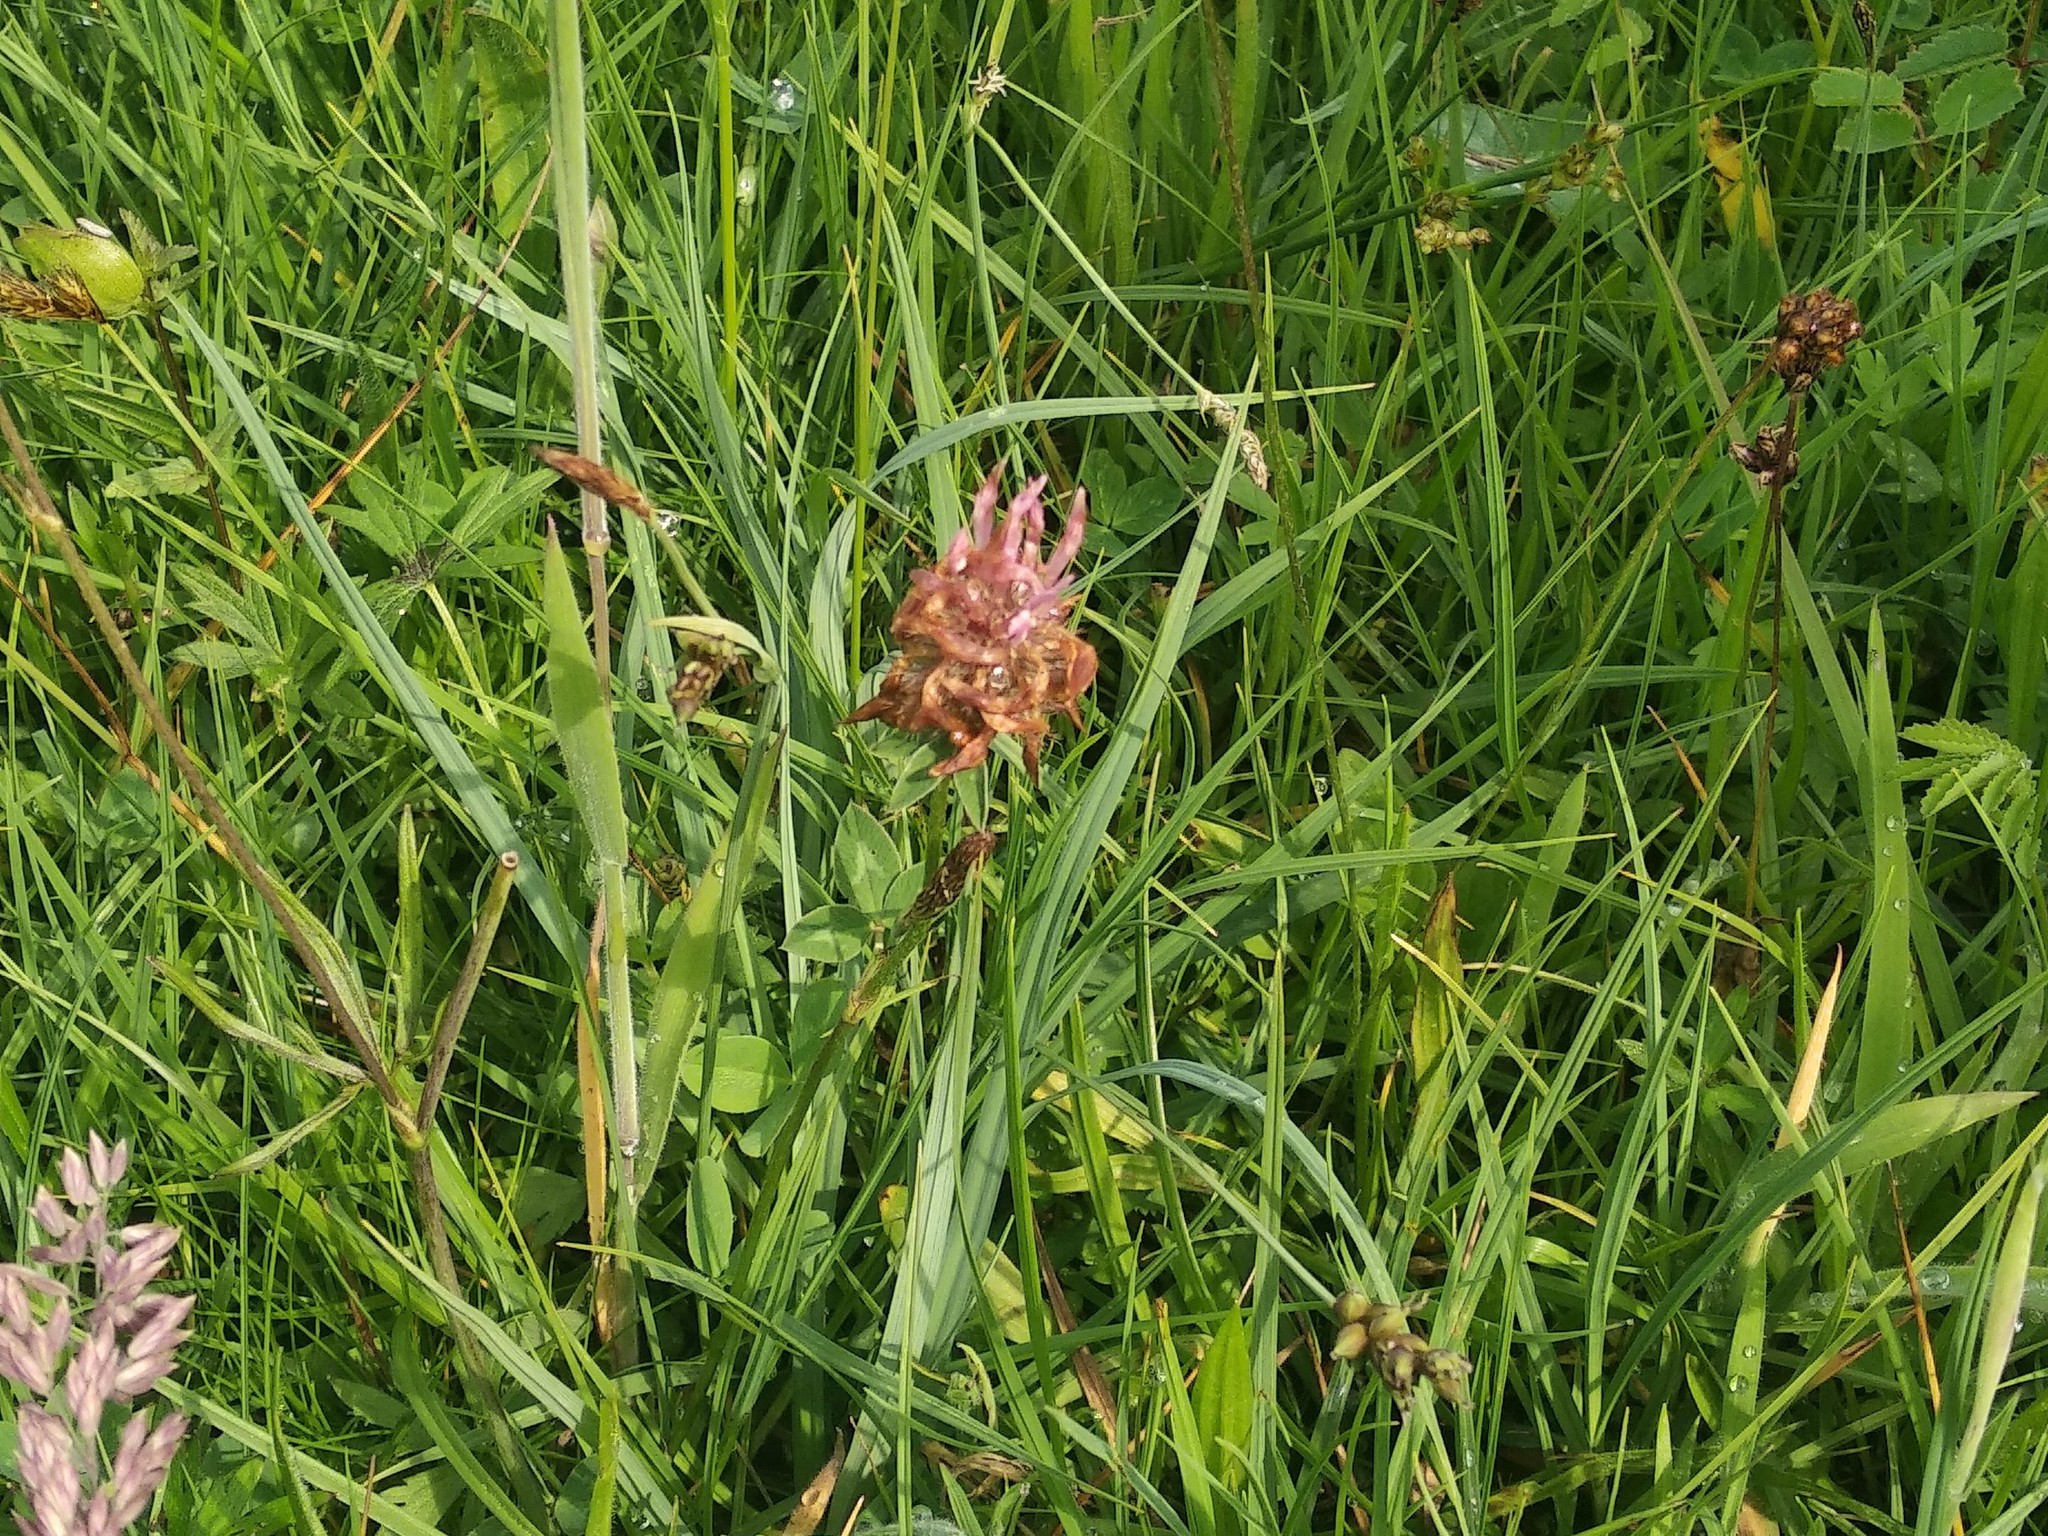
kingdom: Plantae
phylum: Tracheophyta
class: Magnoliopsida
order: Fabales
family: Fabaceae
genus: Trifolium
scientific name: Trifolium pratense
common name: Red clover
